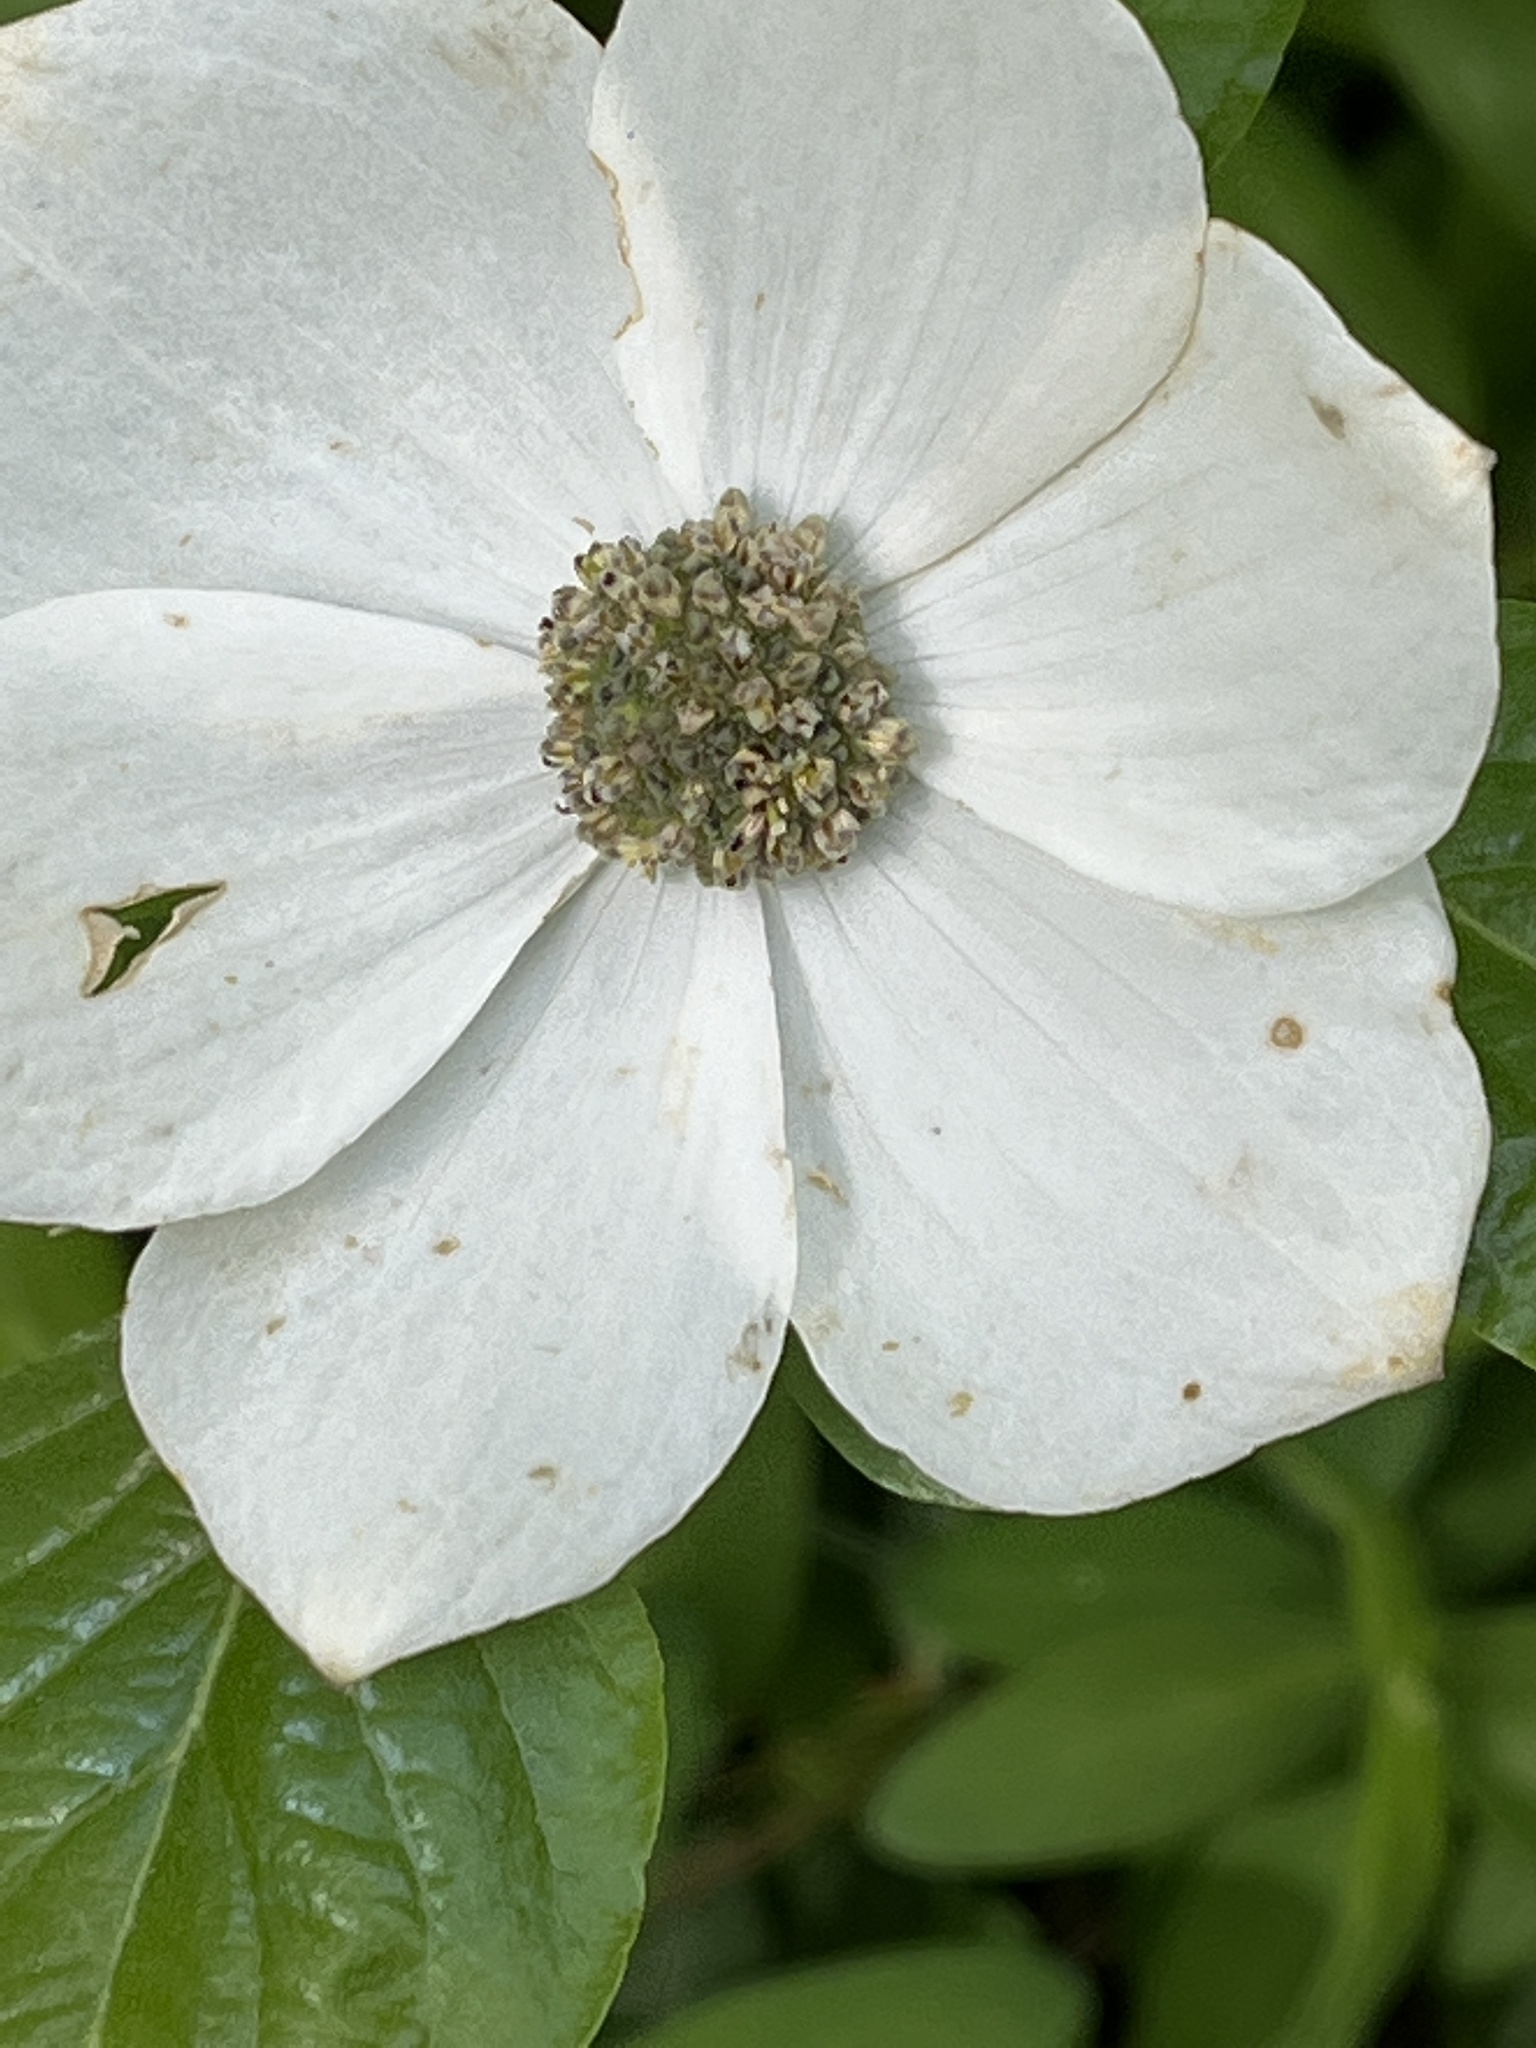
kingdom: Plantae
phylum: Tracheophyta
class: Magnoliopsida
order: Cornales
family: Cornaceae
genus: Cornus
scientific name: Cornus nuttallii
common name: Pacific dogwood
